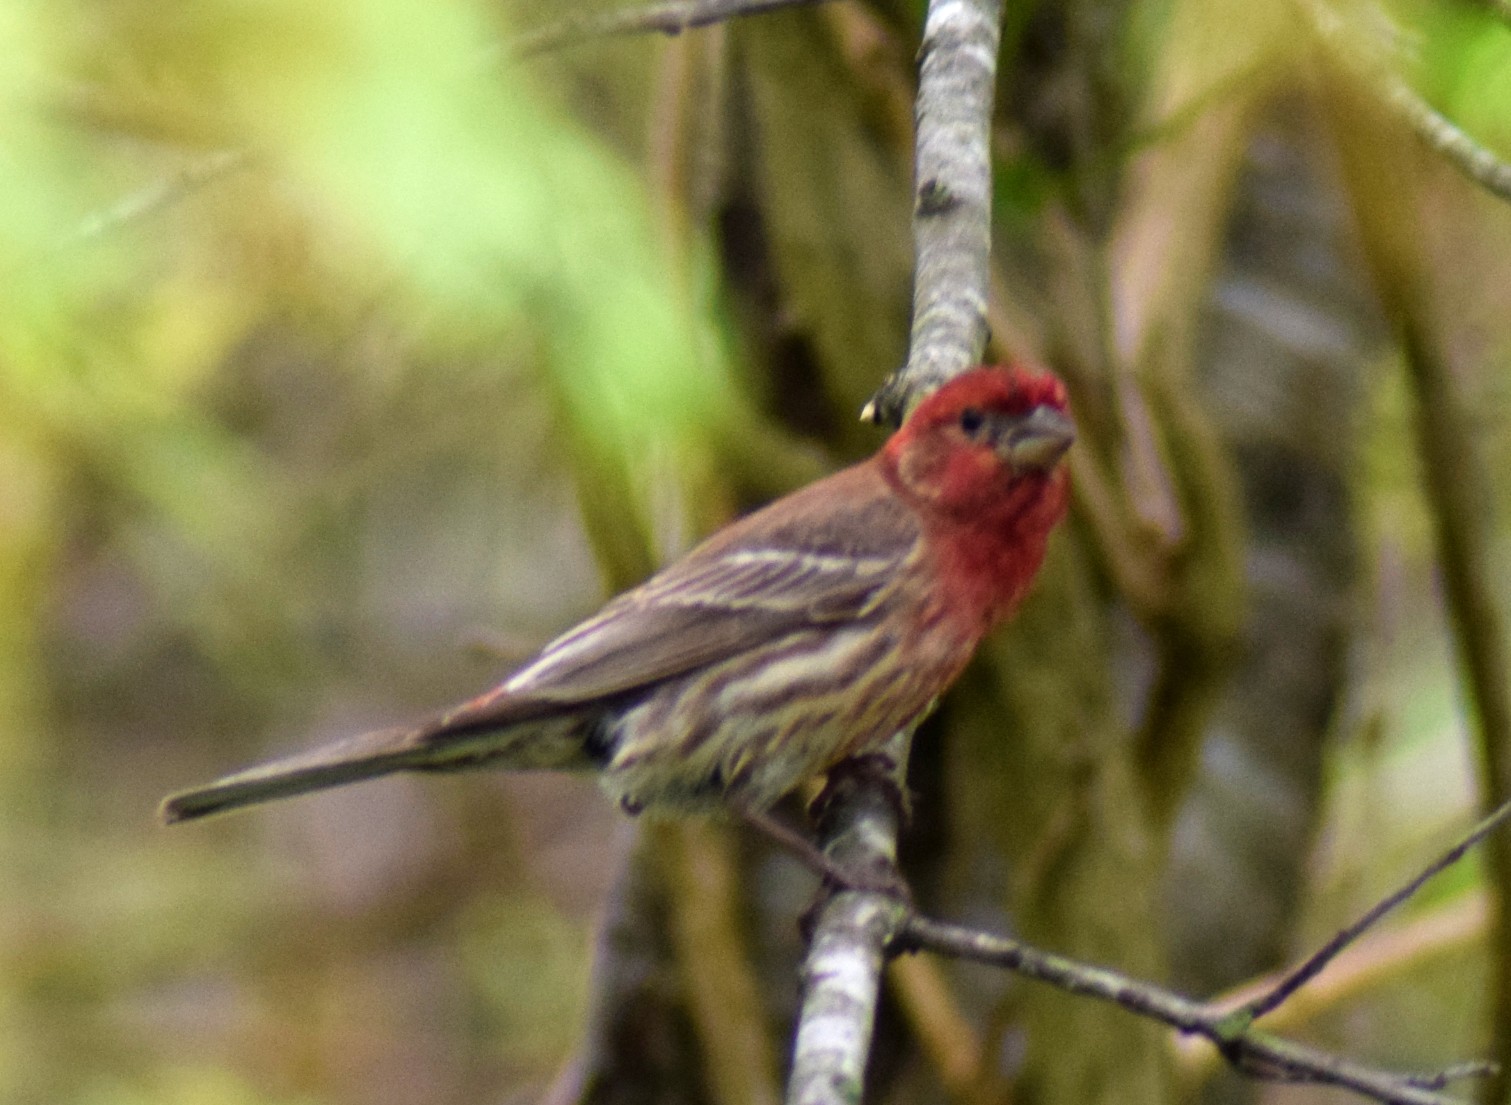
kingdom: Animalia
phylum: Chordata
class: Aves
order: Passeriformes
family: Fringillidae
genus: Haemorhous
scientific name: Haemorhous mexicanus
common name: House finch
